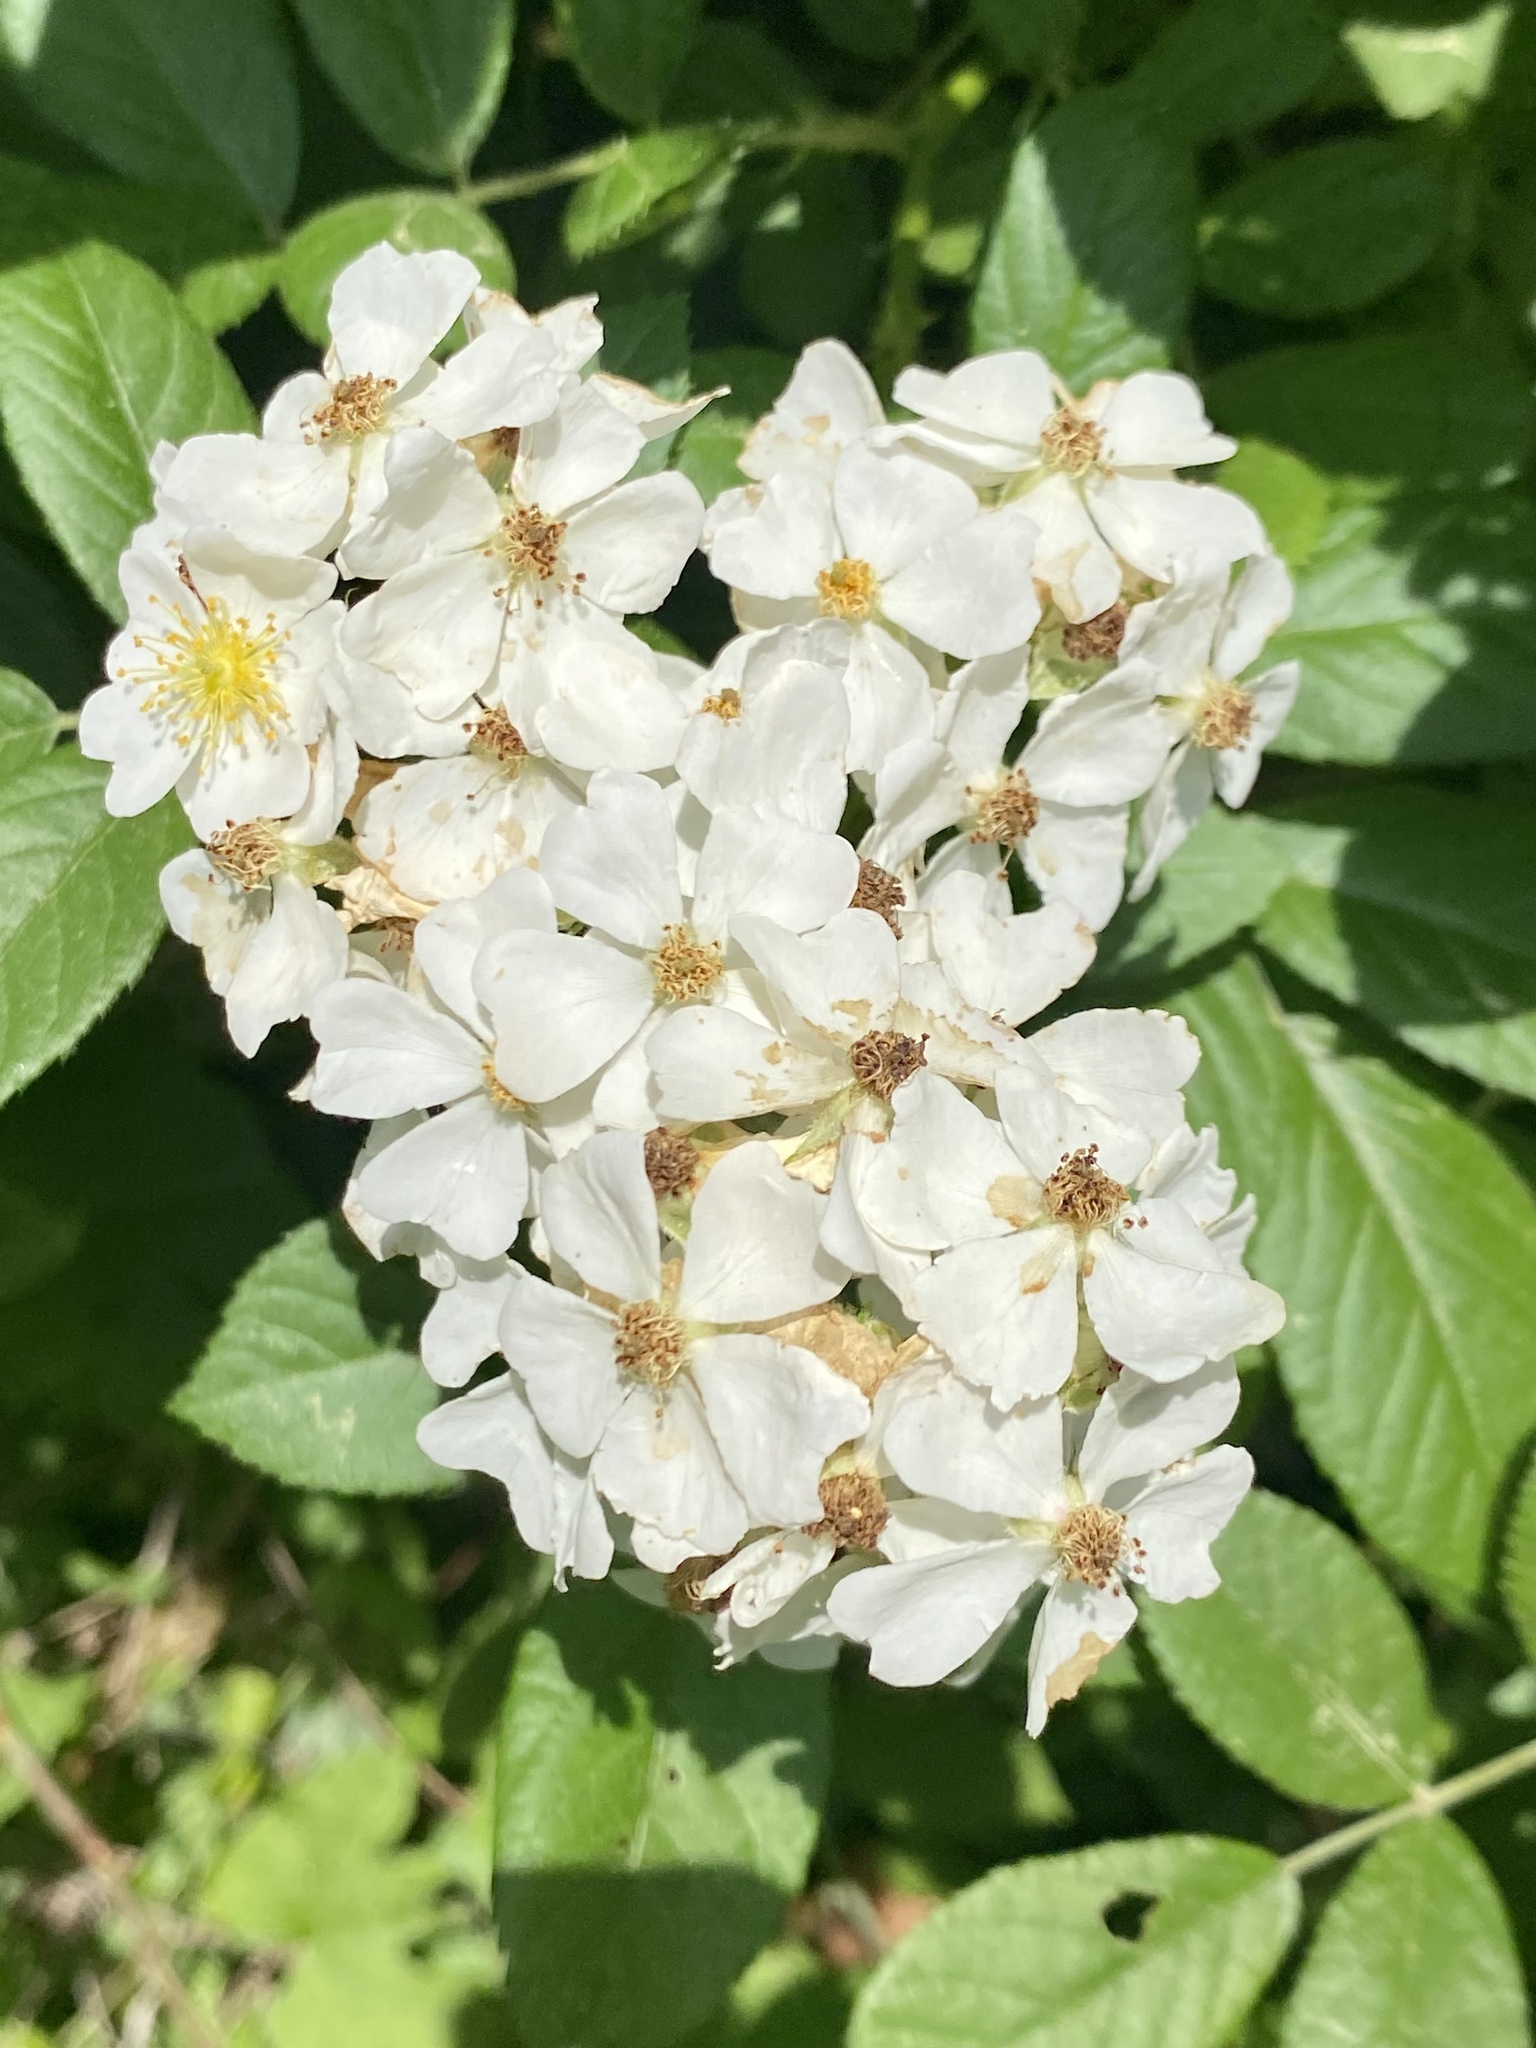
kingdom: Plantae
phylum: Tracheophyta
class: Magnoliopsida
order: Rosales
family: Rosaceae
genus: Rosa
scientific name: Rosa multiflora
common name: Multiflora rose
